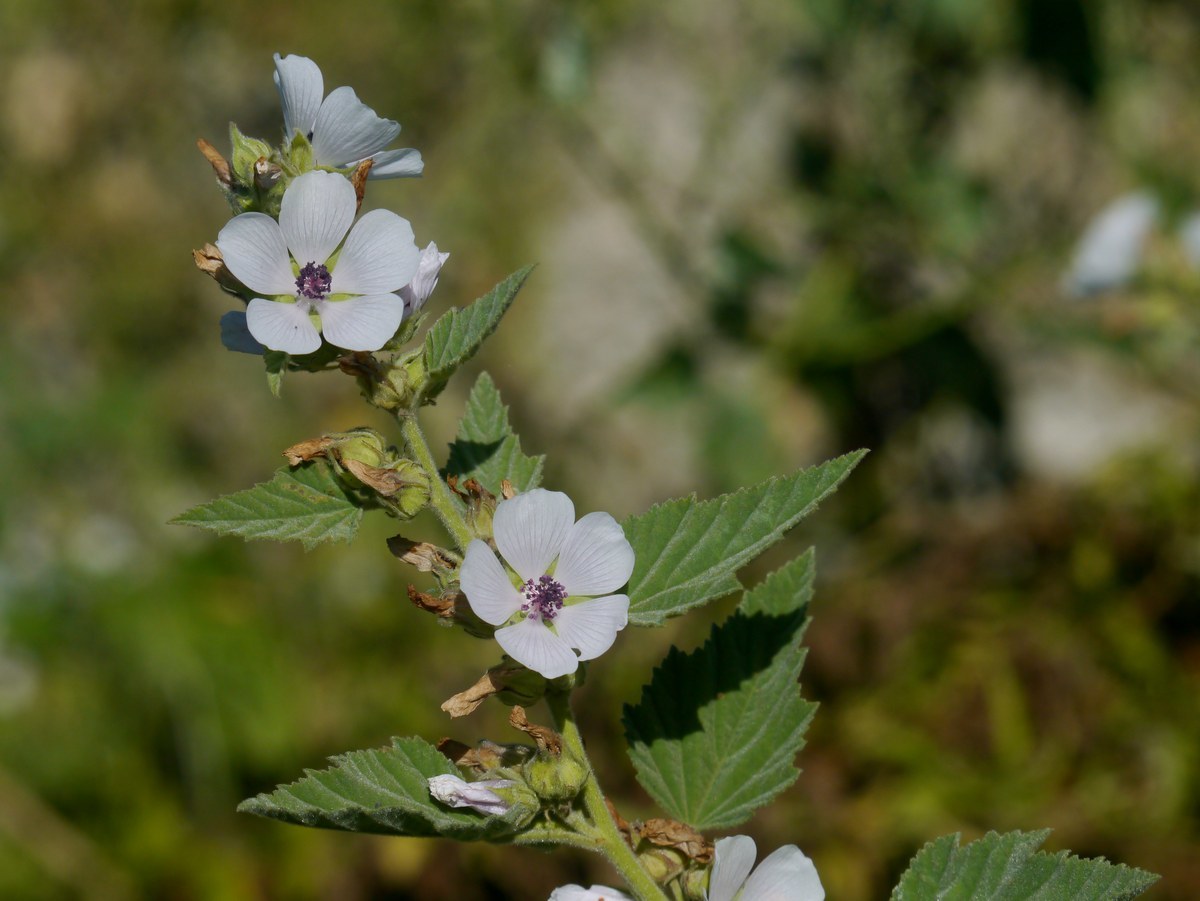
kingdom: Plantae
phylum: Tracheophyta
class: Magnoliopsida
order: Malvales
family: Malvaceae
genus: Althaea
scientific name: Althaea officinalis
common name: Marsh-mallow
